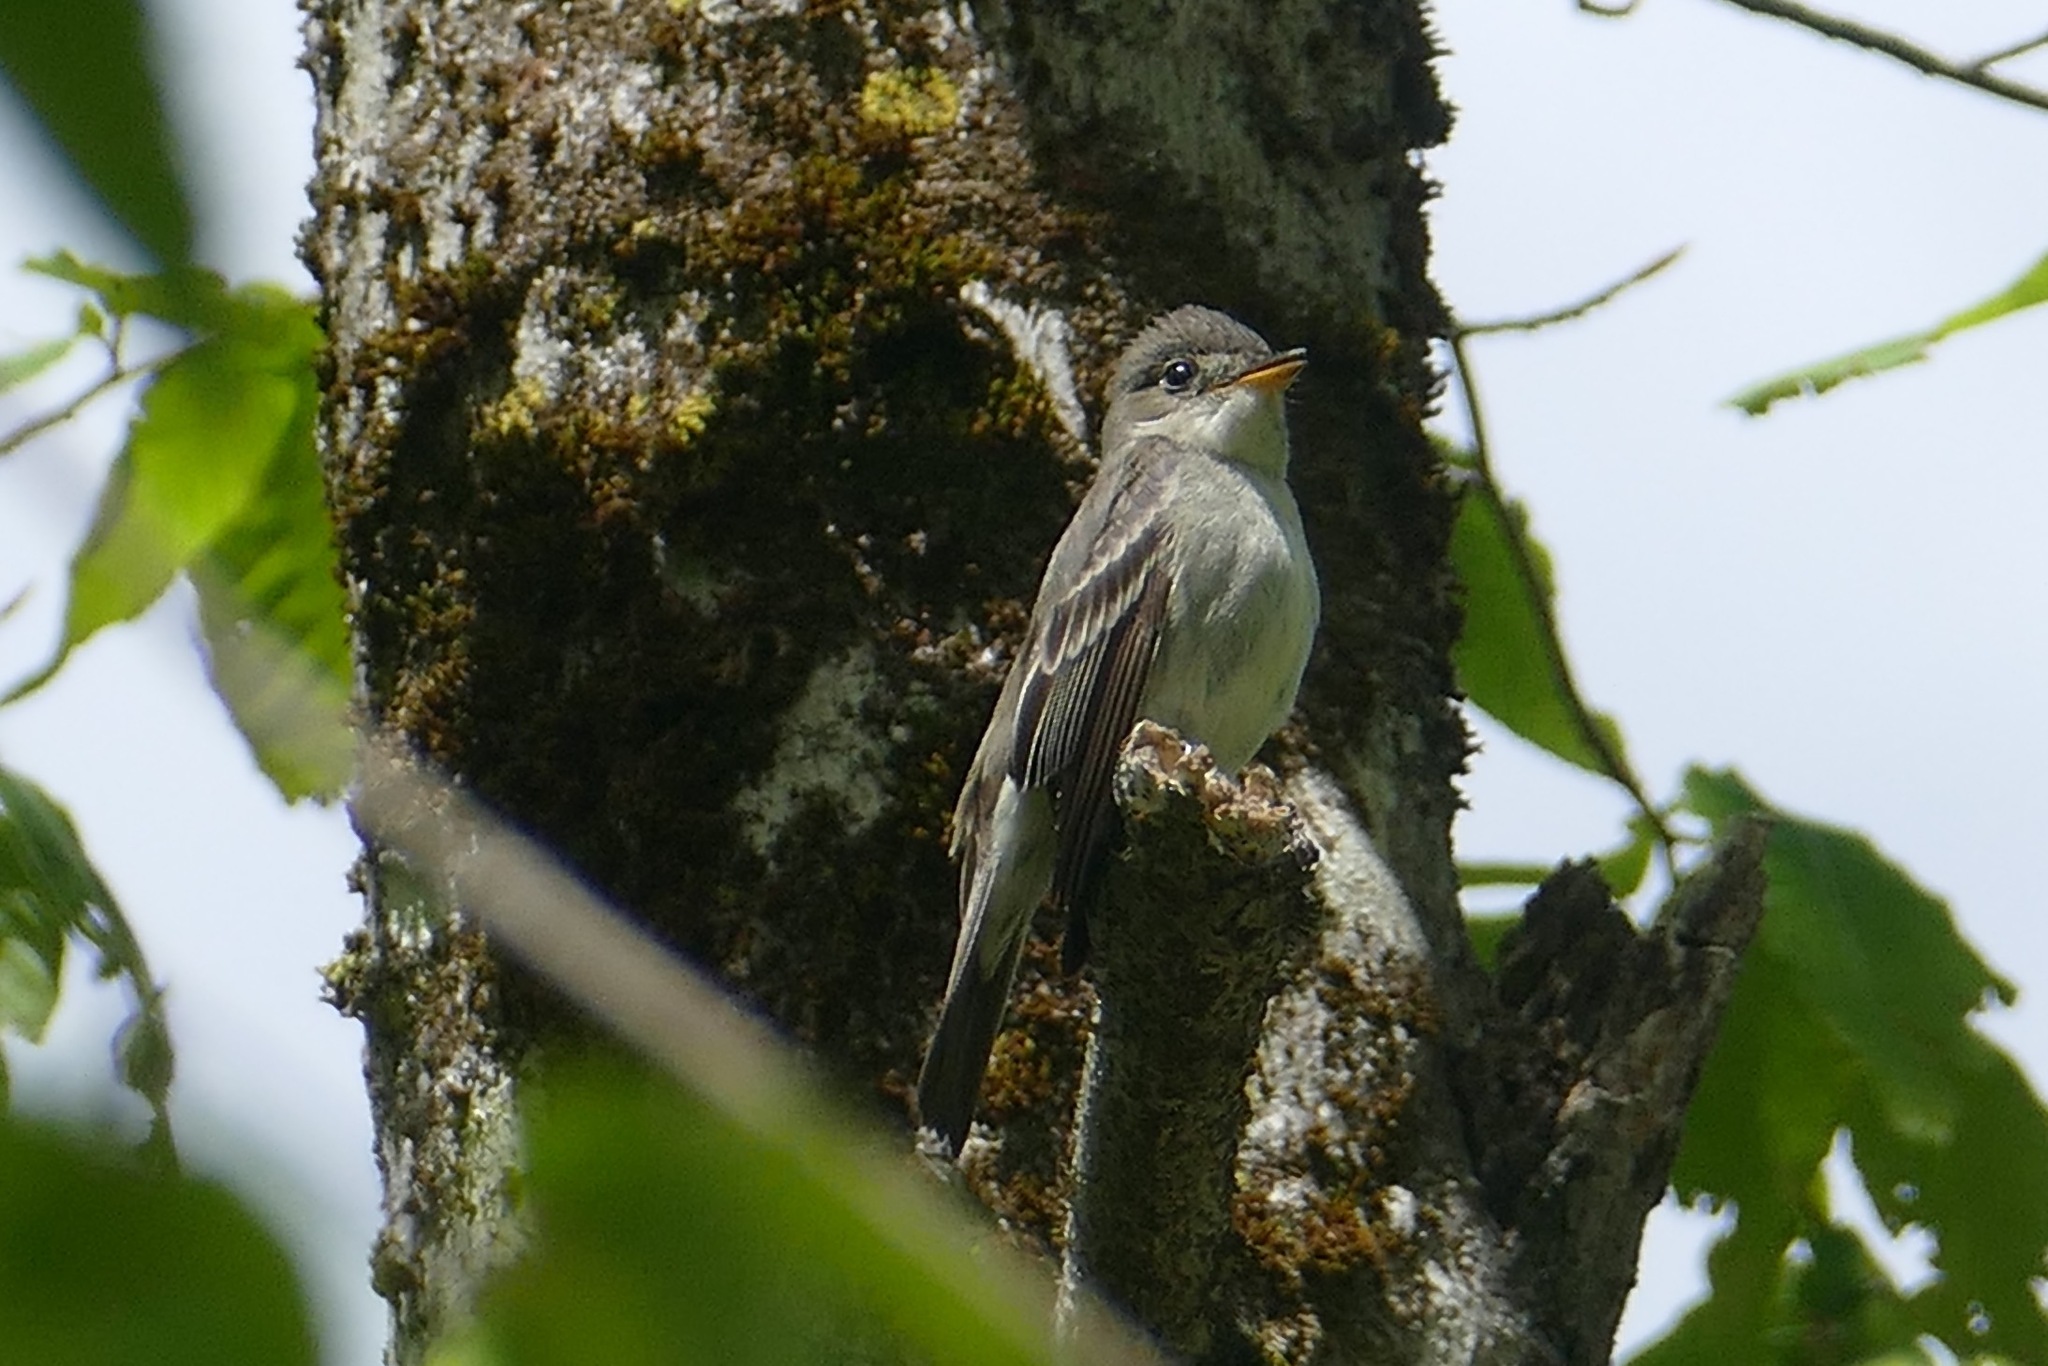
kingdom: Animalia
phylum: Chordata
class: Aves
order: Passeriformes
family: Tyrannidae
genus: Contopus
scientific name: Contopus virens
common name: Eastern wood-pewee
